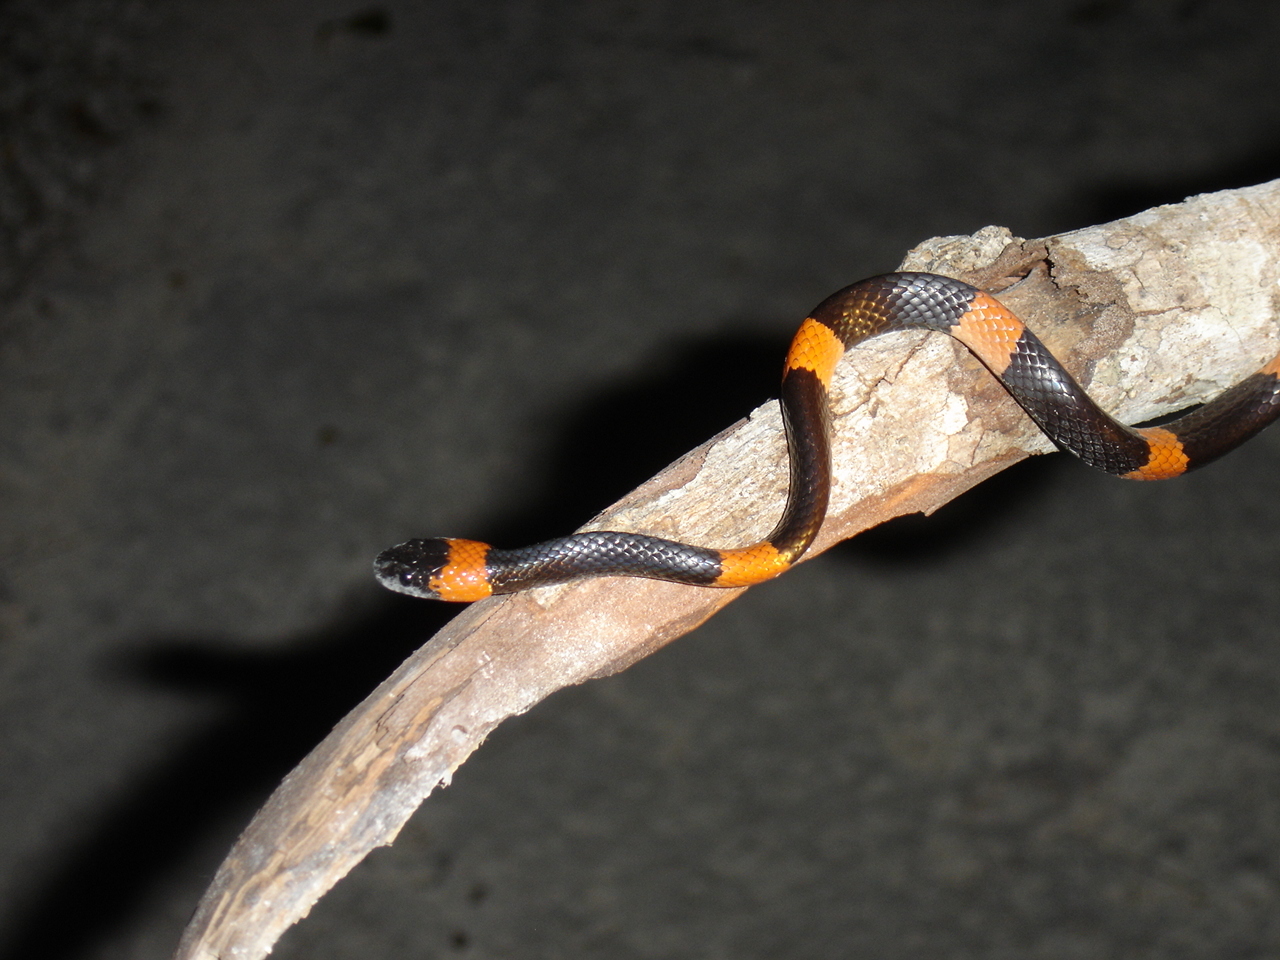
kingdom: Animalia
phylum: Chordata
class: Squamata
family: Colubridae
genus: Dipsas
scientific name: Dipsas brevifacies
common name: Snail-eating thirst snake
